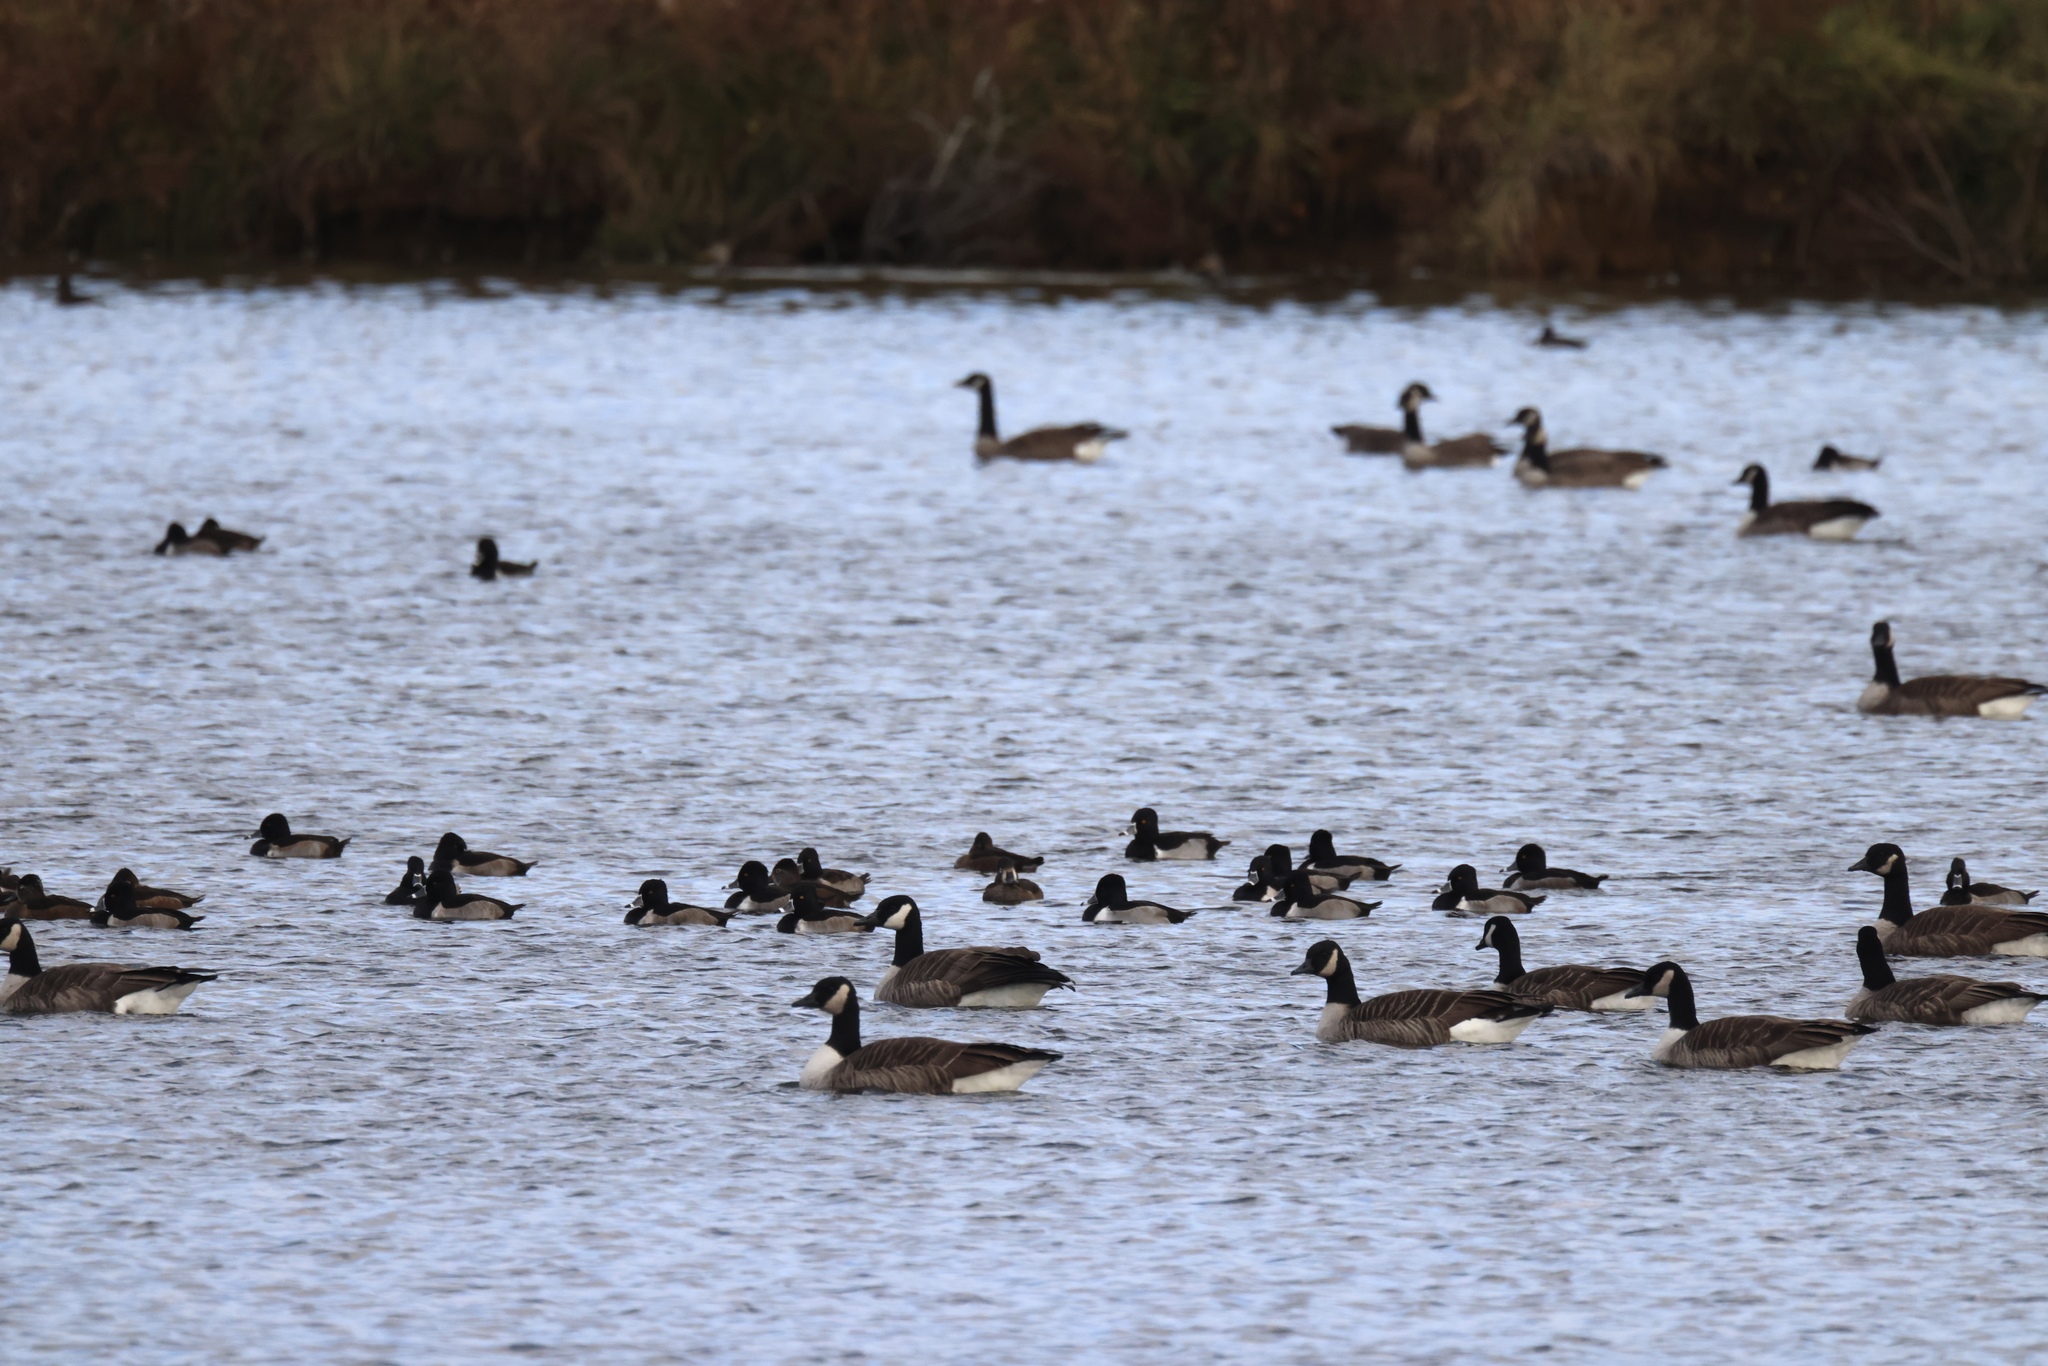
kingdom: Animalia
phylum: Chordata
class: Aves
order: Anseriformes
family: Anatidae
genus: Branta
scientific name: Branta canadensis
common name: Canada goose
